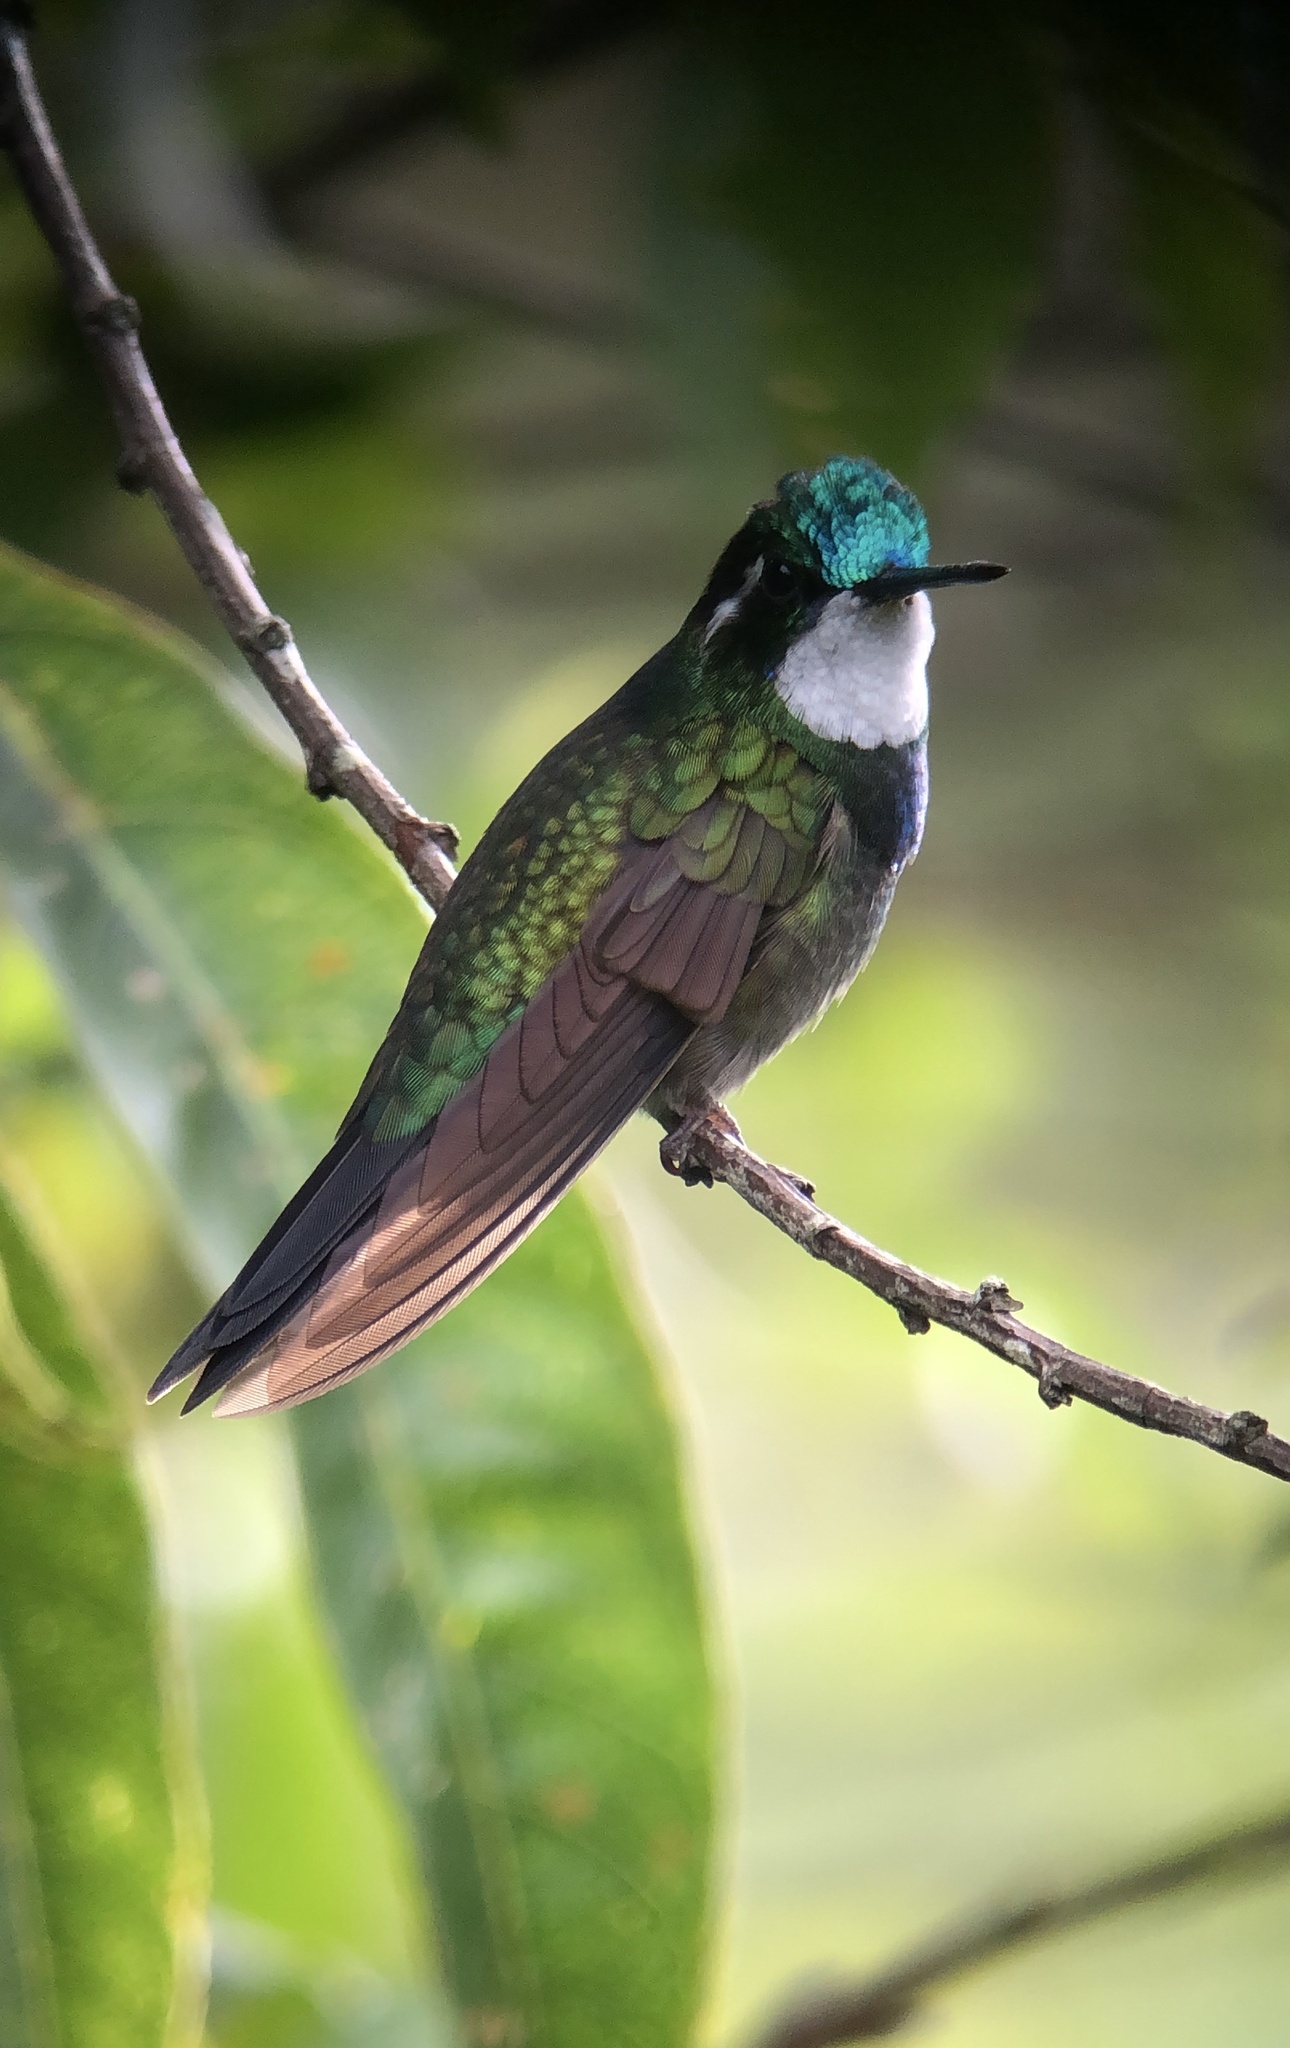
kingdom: Animalia
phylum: Chordata
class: Aves
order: Apodiformes
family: Trochilidae
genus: Lampornis
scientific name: Lampornis castaneoventris
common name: White-throated mountain-gem
